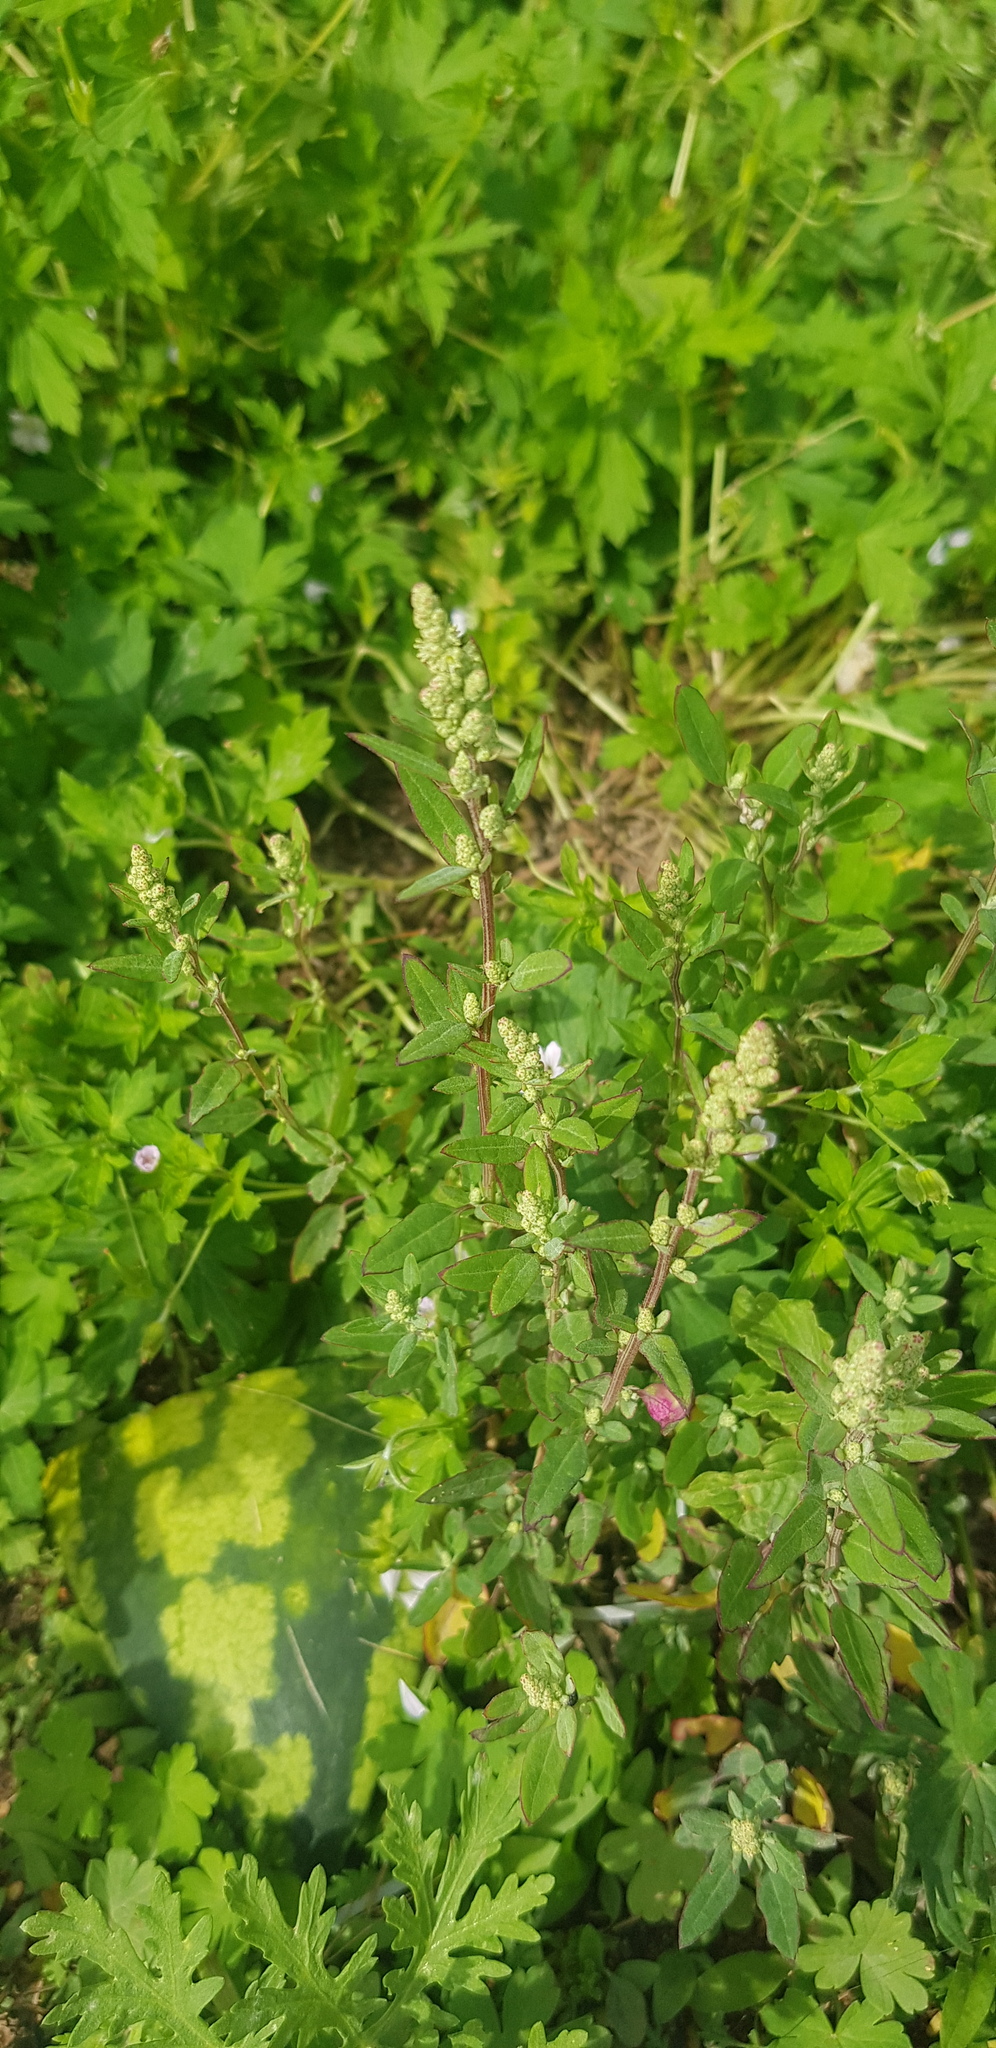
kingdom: Plantae
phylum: Tracheophyta
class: Magnoliopsida
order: Caryophyllales
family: Amaranthaceae
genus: Chenopodium
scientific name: Chenopodium album
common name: Fat-hen
